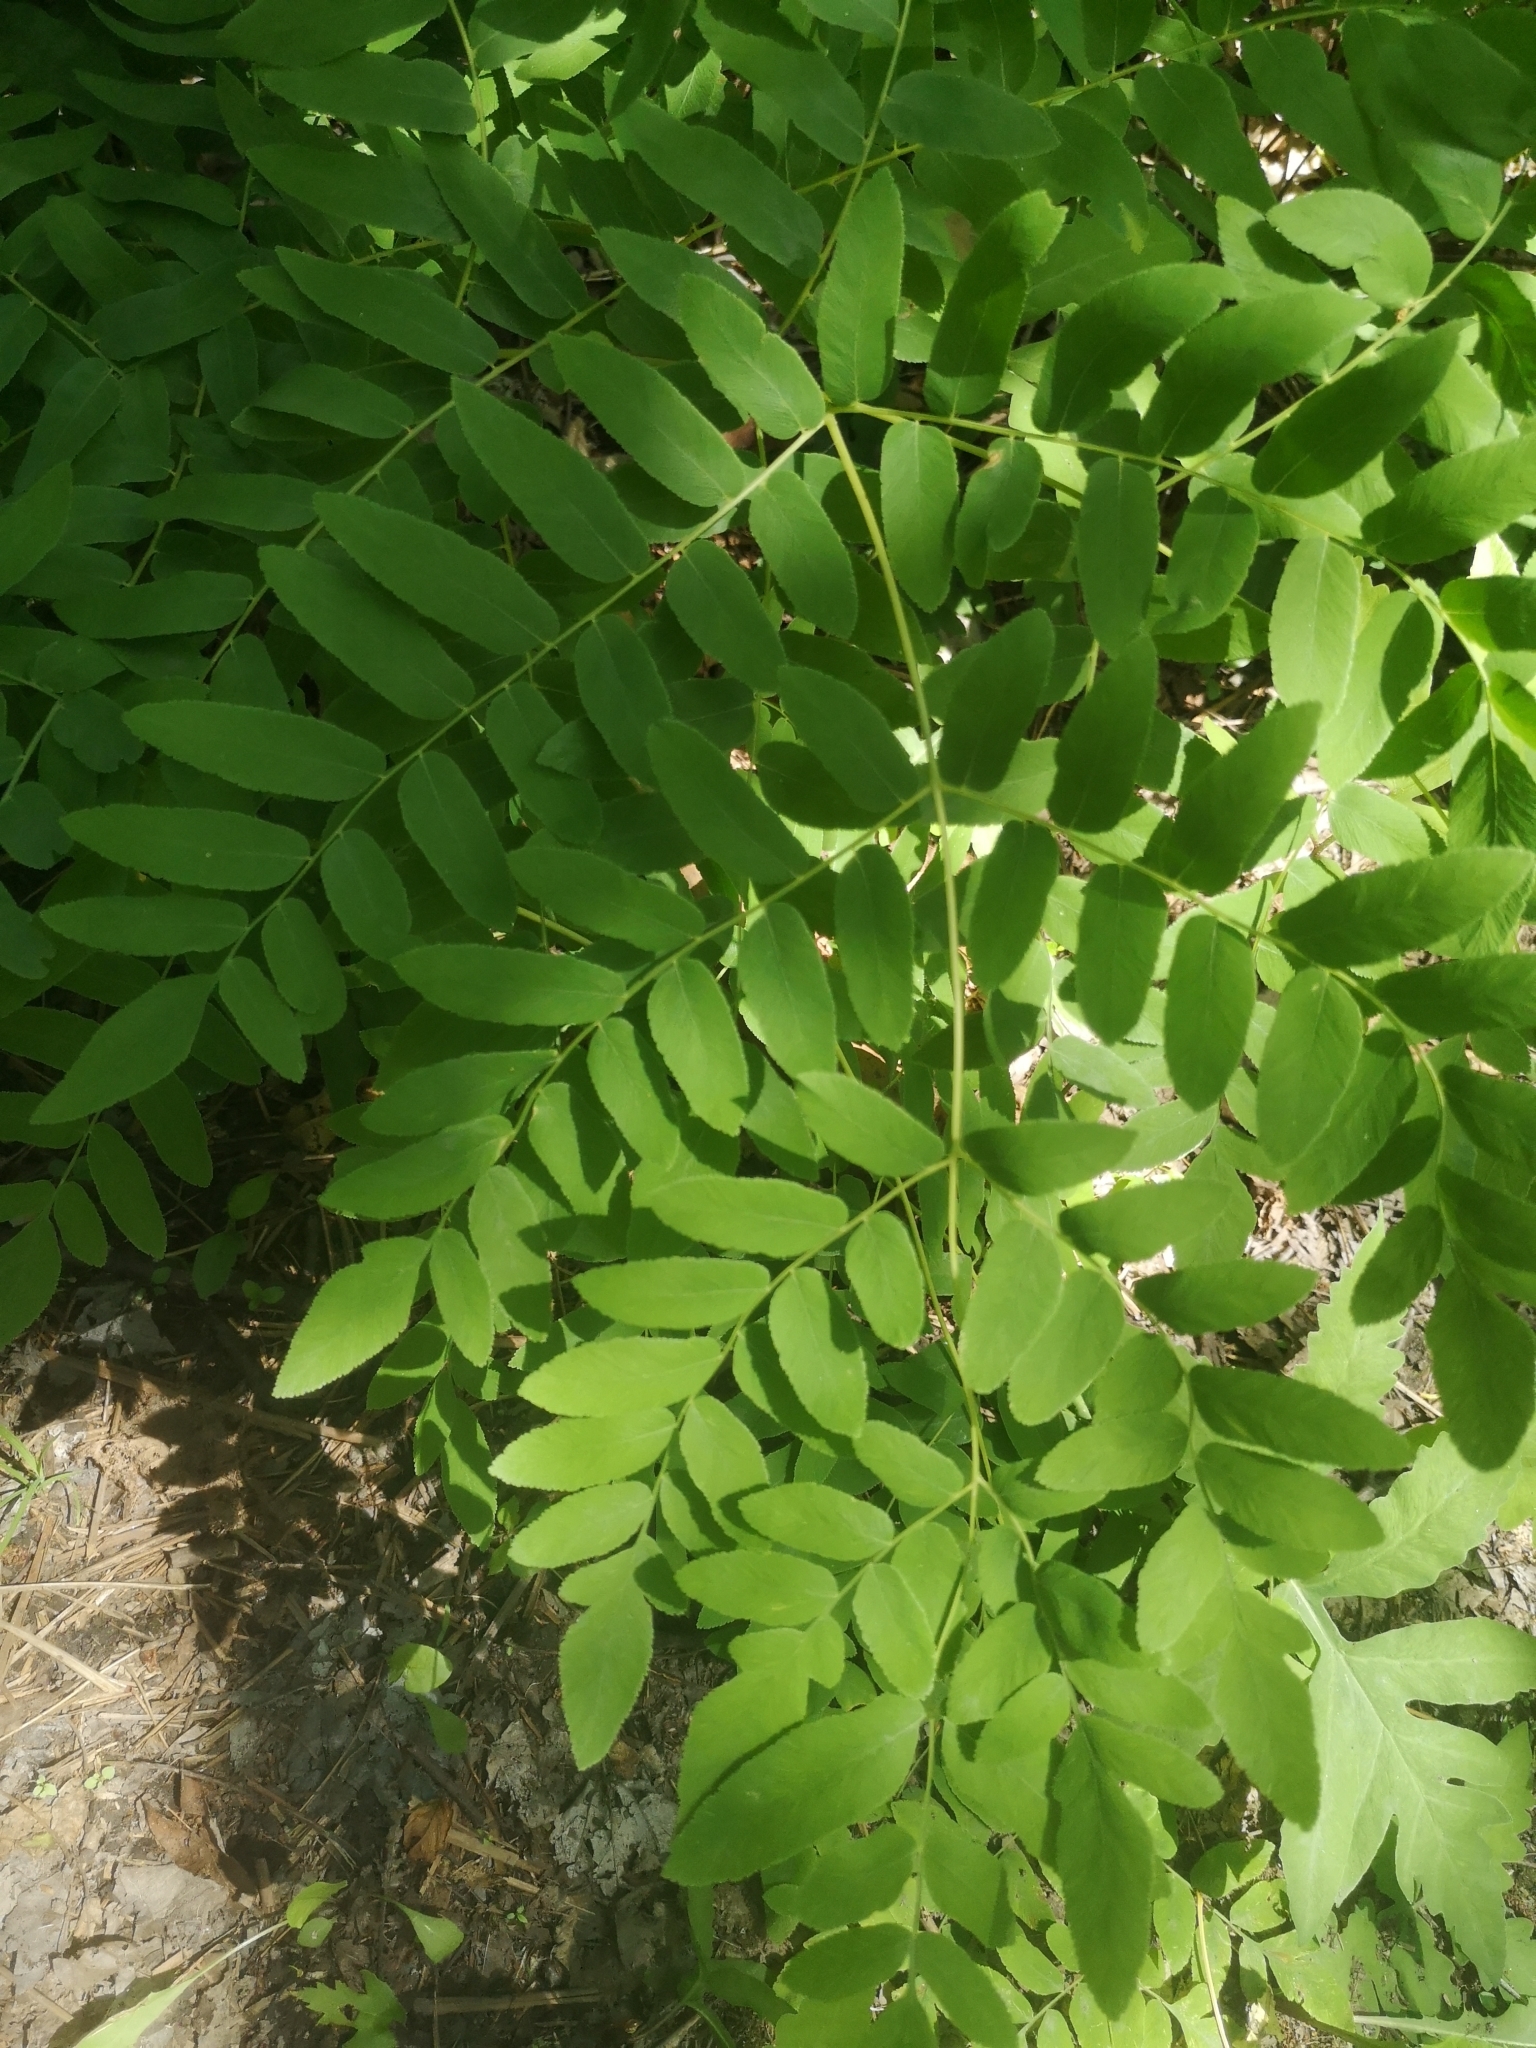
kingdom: Plantae
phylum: Tracheophyta
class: Polypodiopsida
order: Osmundales
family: Osmundaceae
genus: Osmunda
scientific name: Osmunda spectabilis
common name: American royal fern
